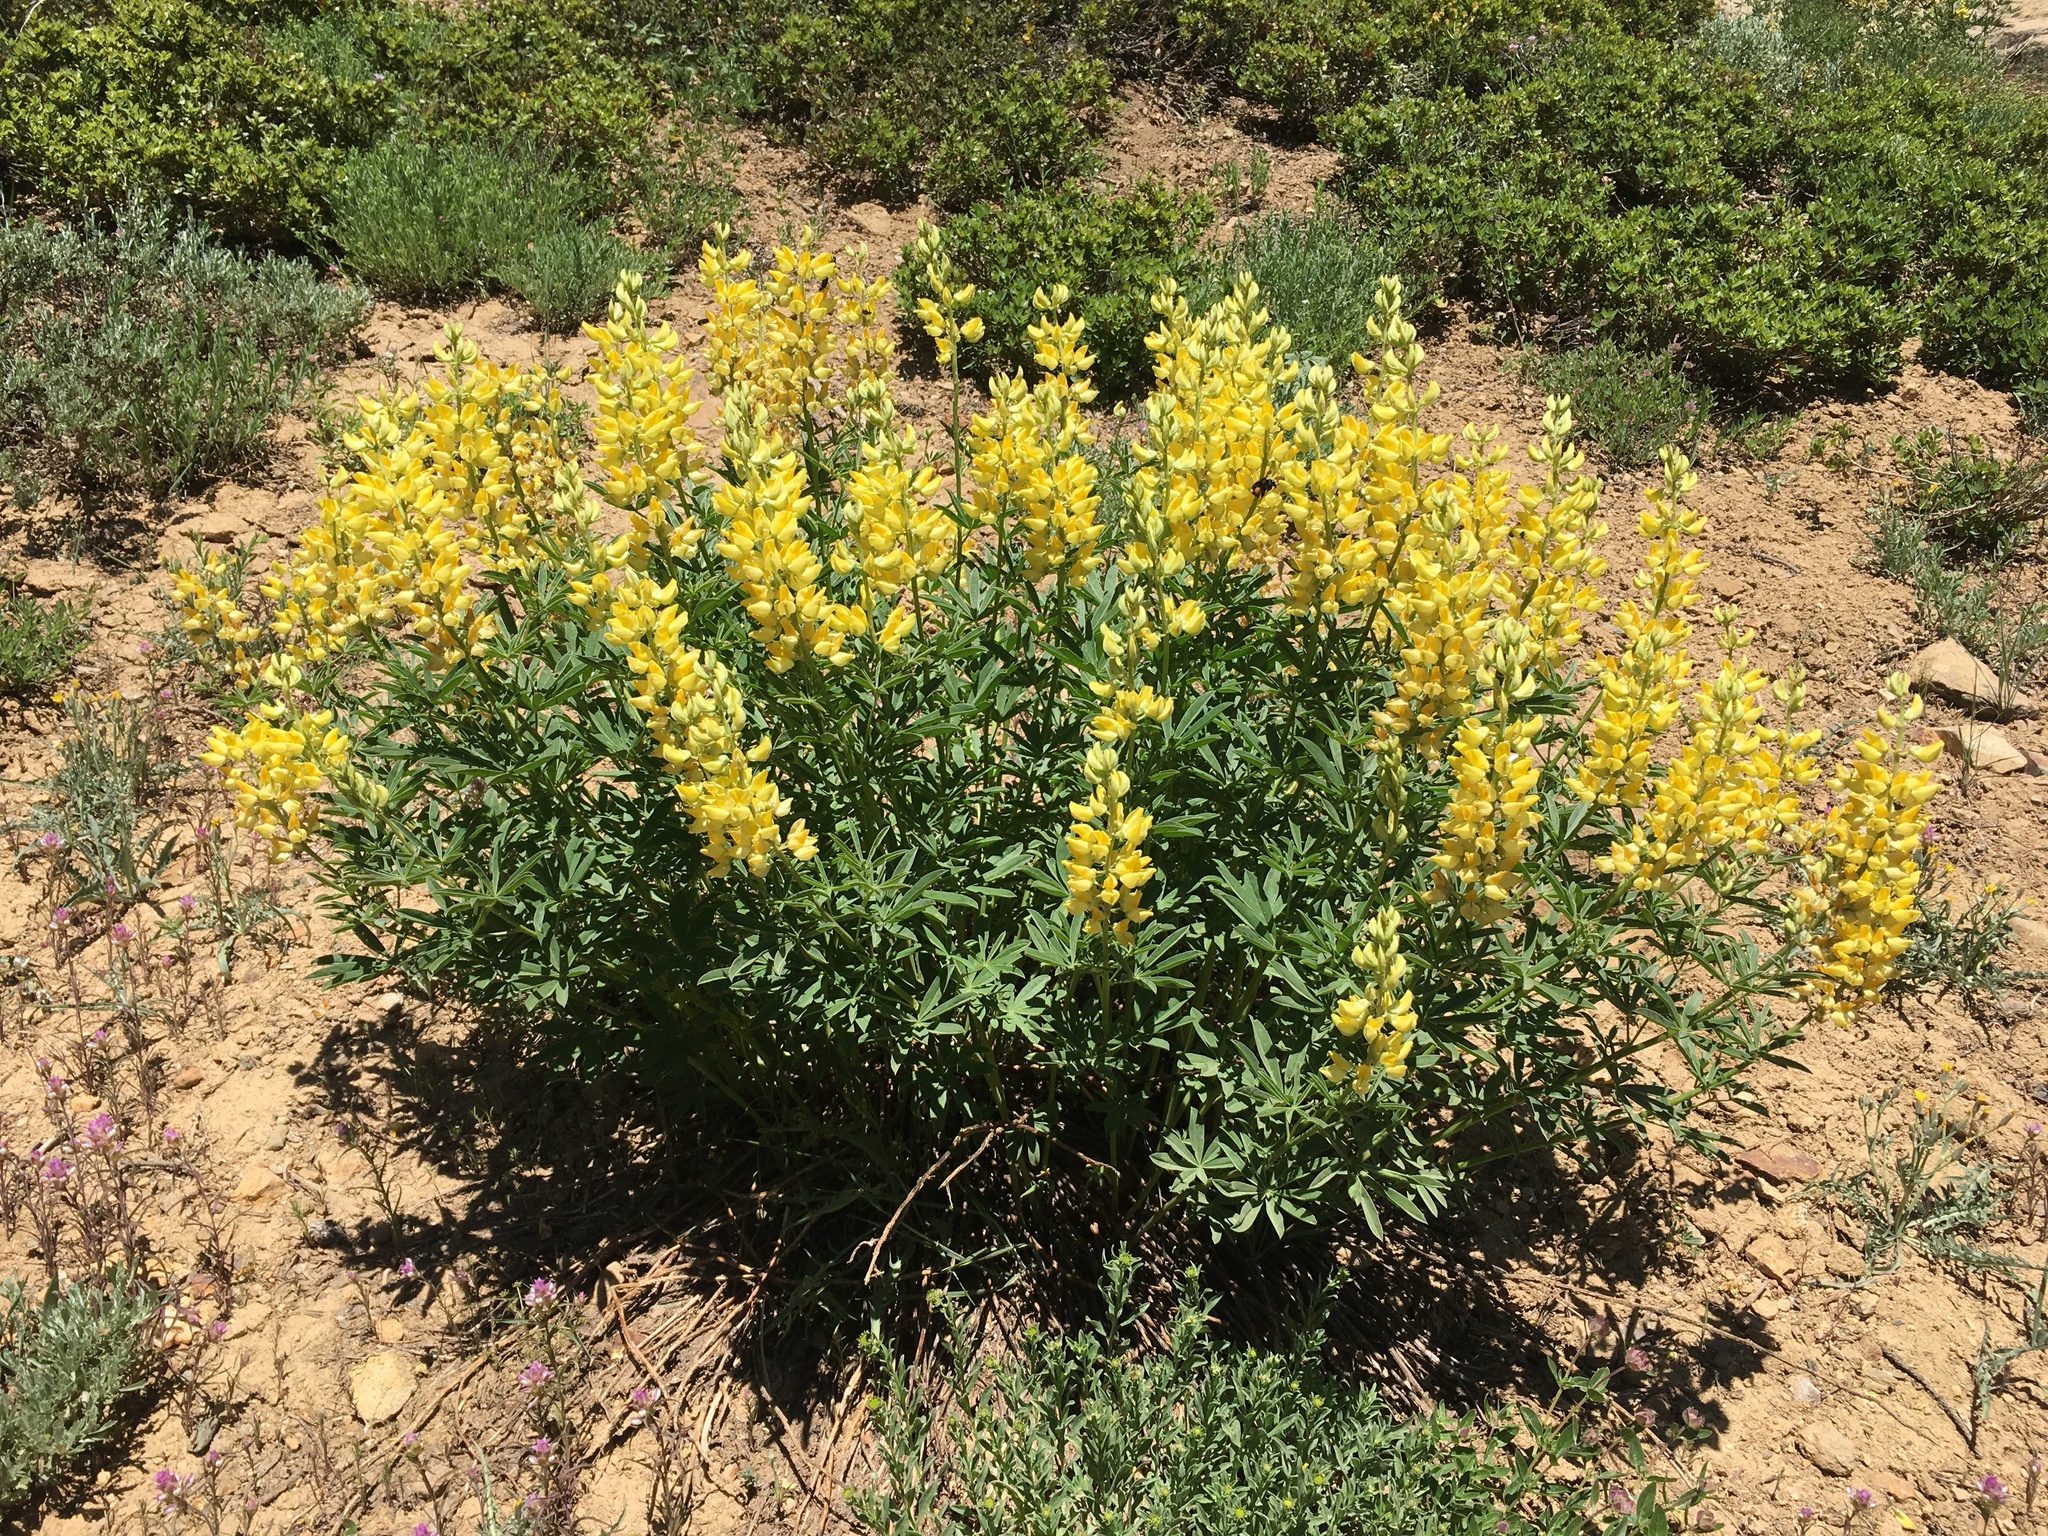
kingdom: Plantae
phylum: Tracheophyta
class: Magnoliopsida
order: Fabales
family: Fabaceae
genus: Lupinus
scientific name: Lupinus croceus
